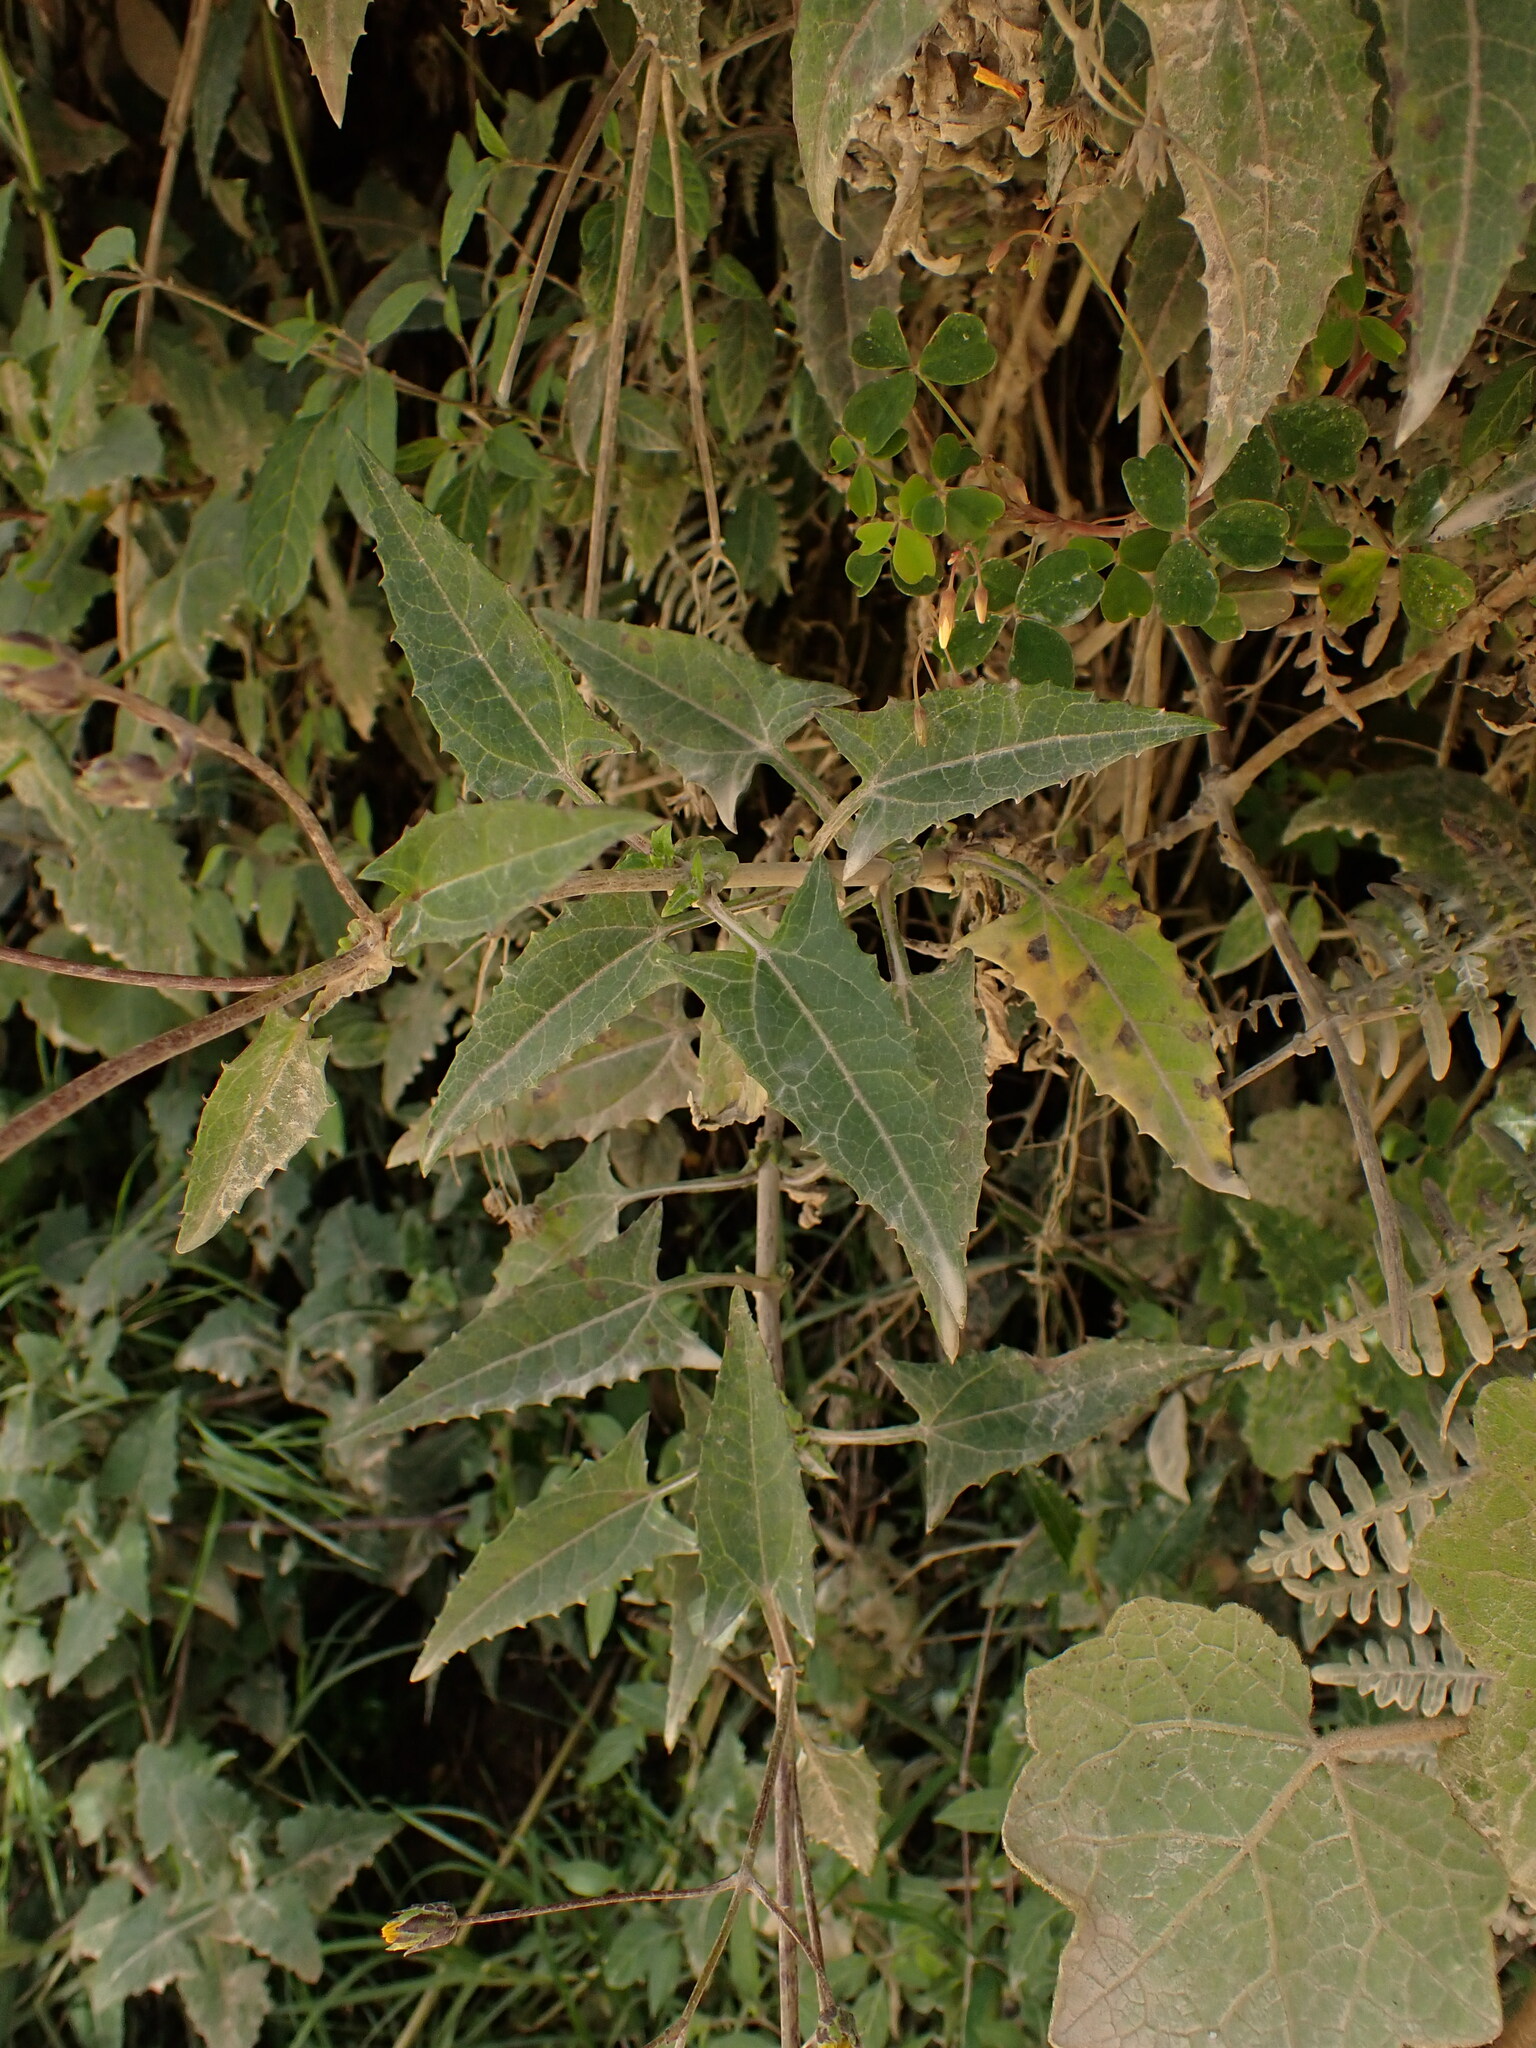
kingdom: Plantae
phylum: Tracheophyta
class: Magnoliopsida
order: Asterales
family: Asteraceae
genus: Munnozia
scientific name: Munnozia senecionidis
